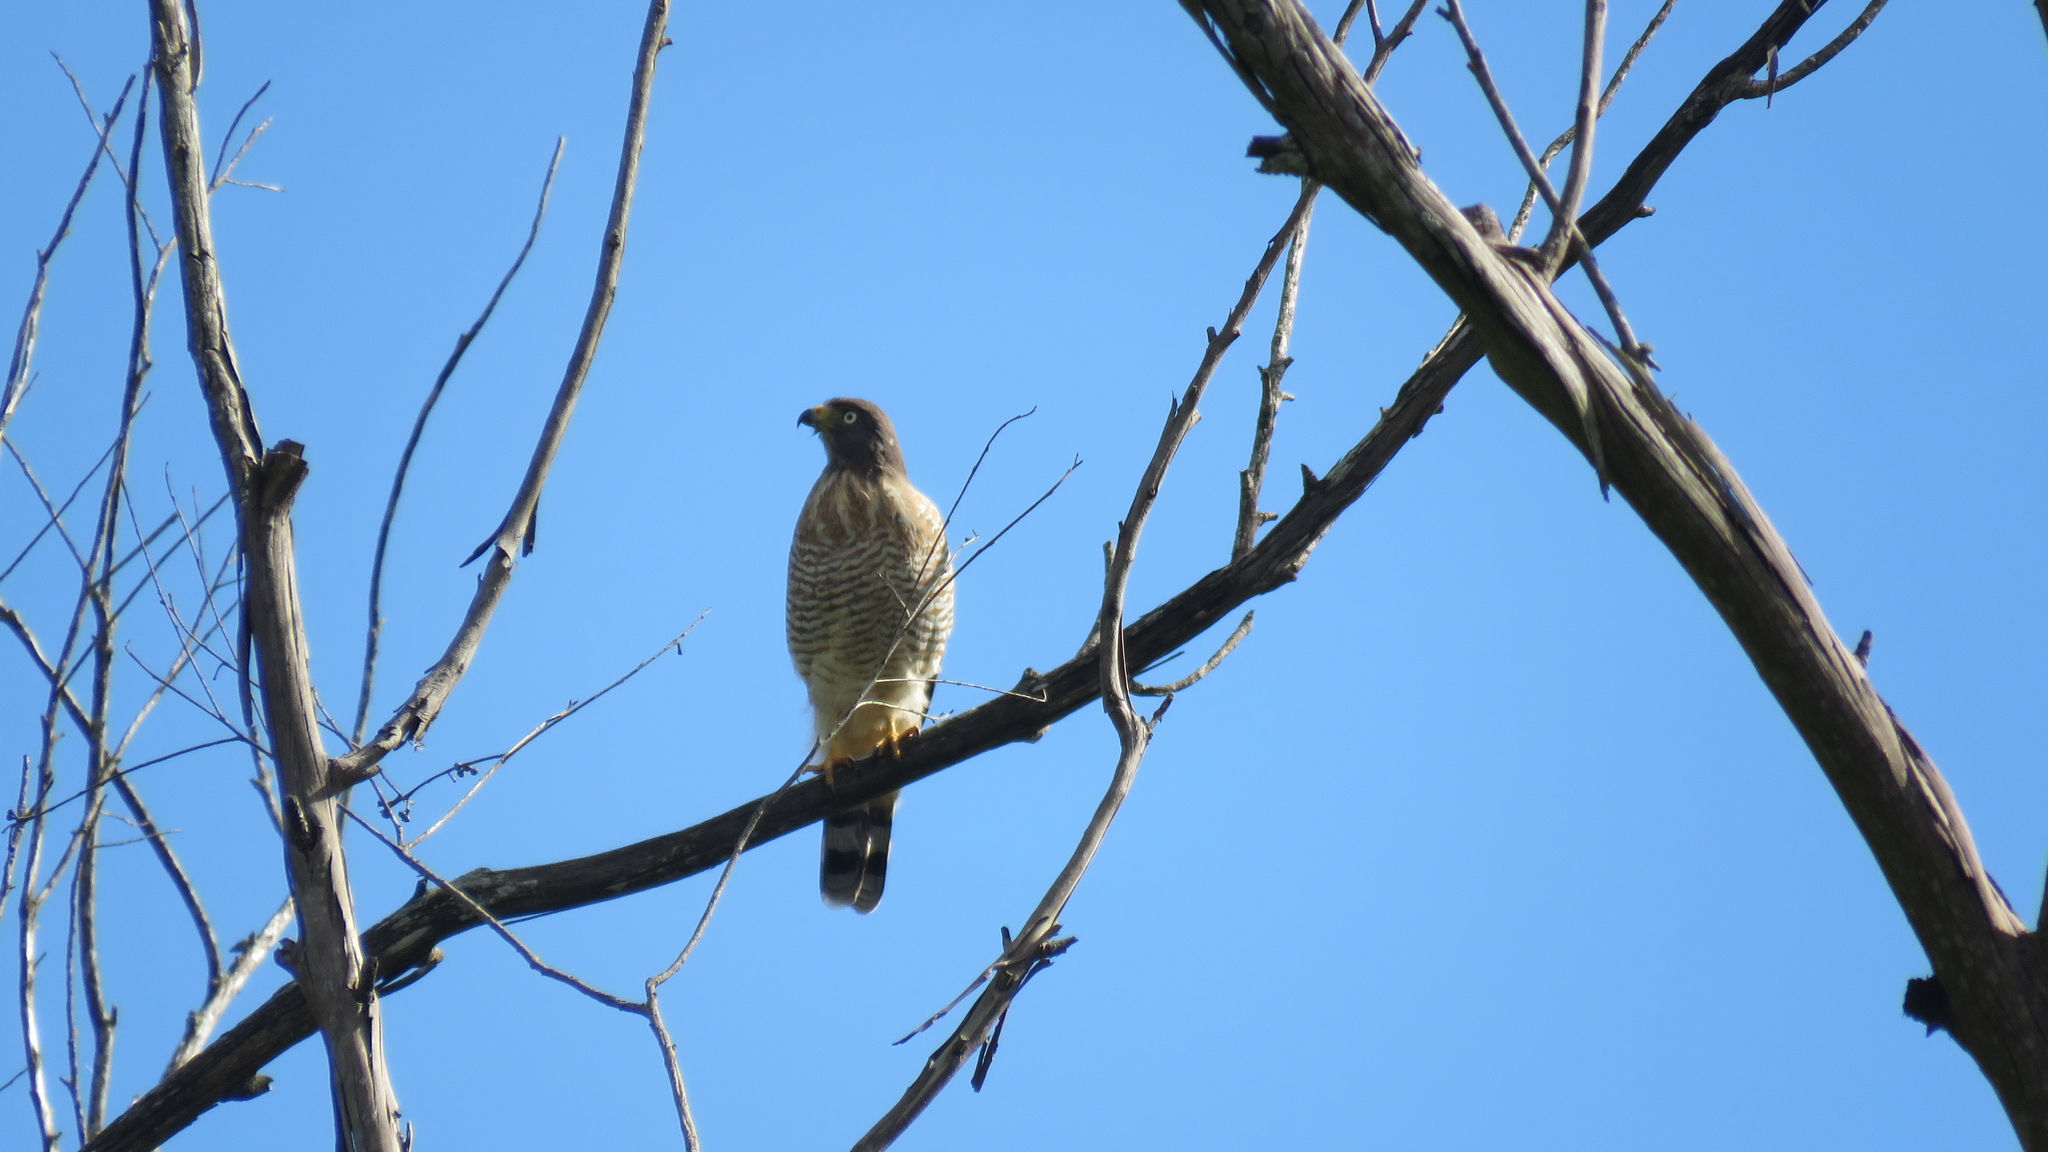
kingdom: Animalia
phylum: Chordata
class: Aves
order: Accipitriformes
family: Accipitridae
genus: Rupornis
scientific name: Rupornis magnirostris
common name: Roadside hawk
